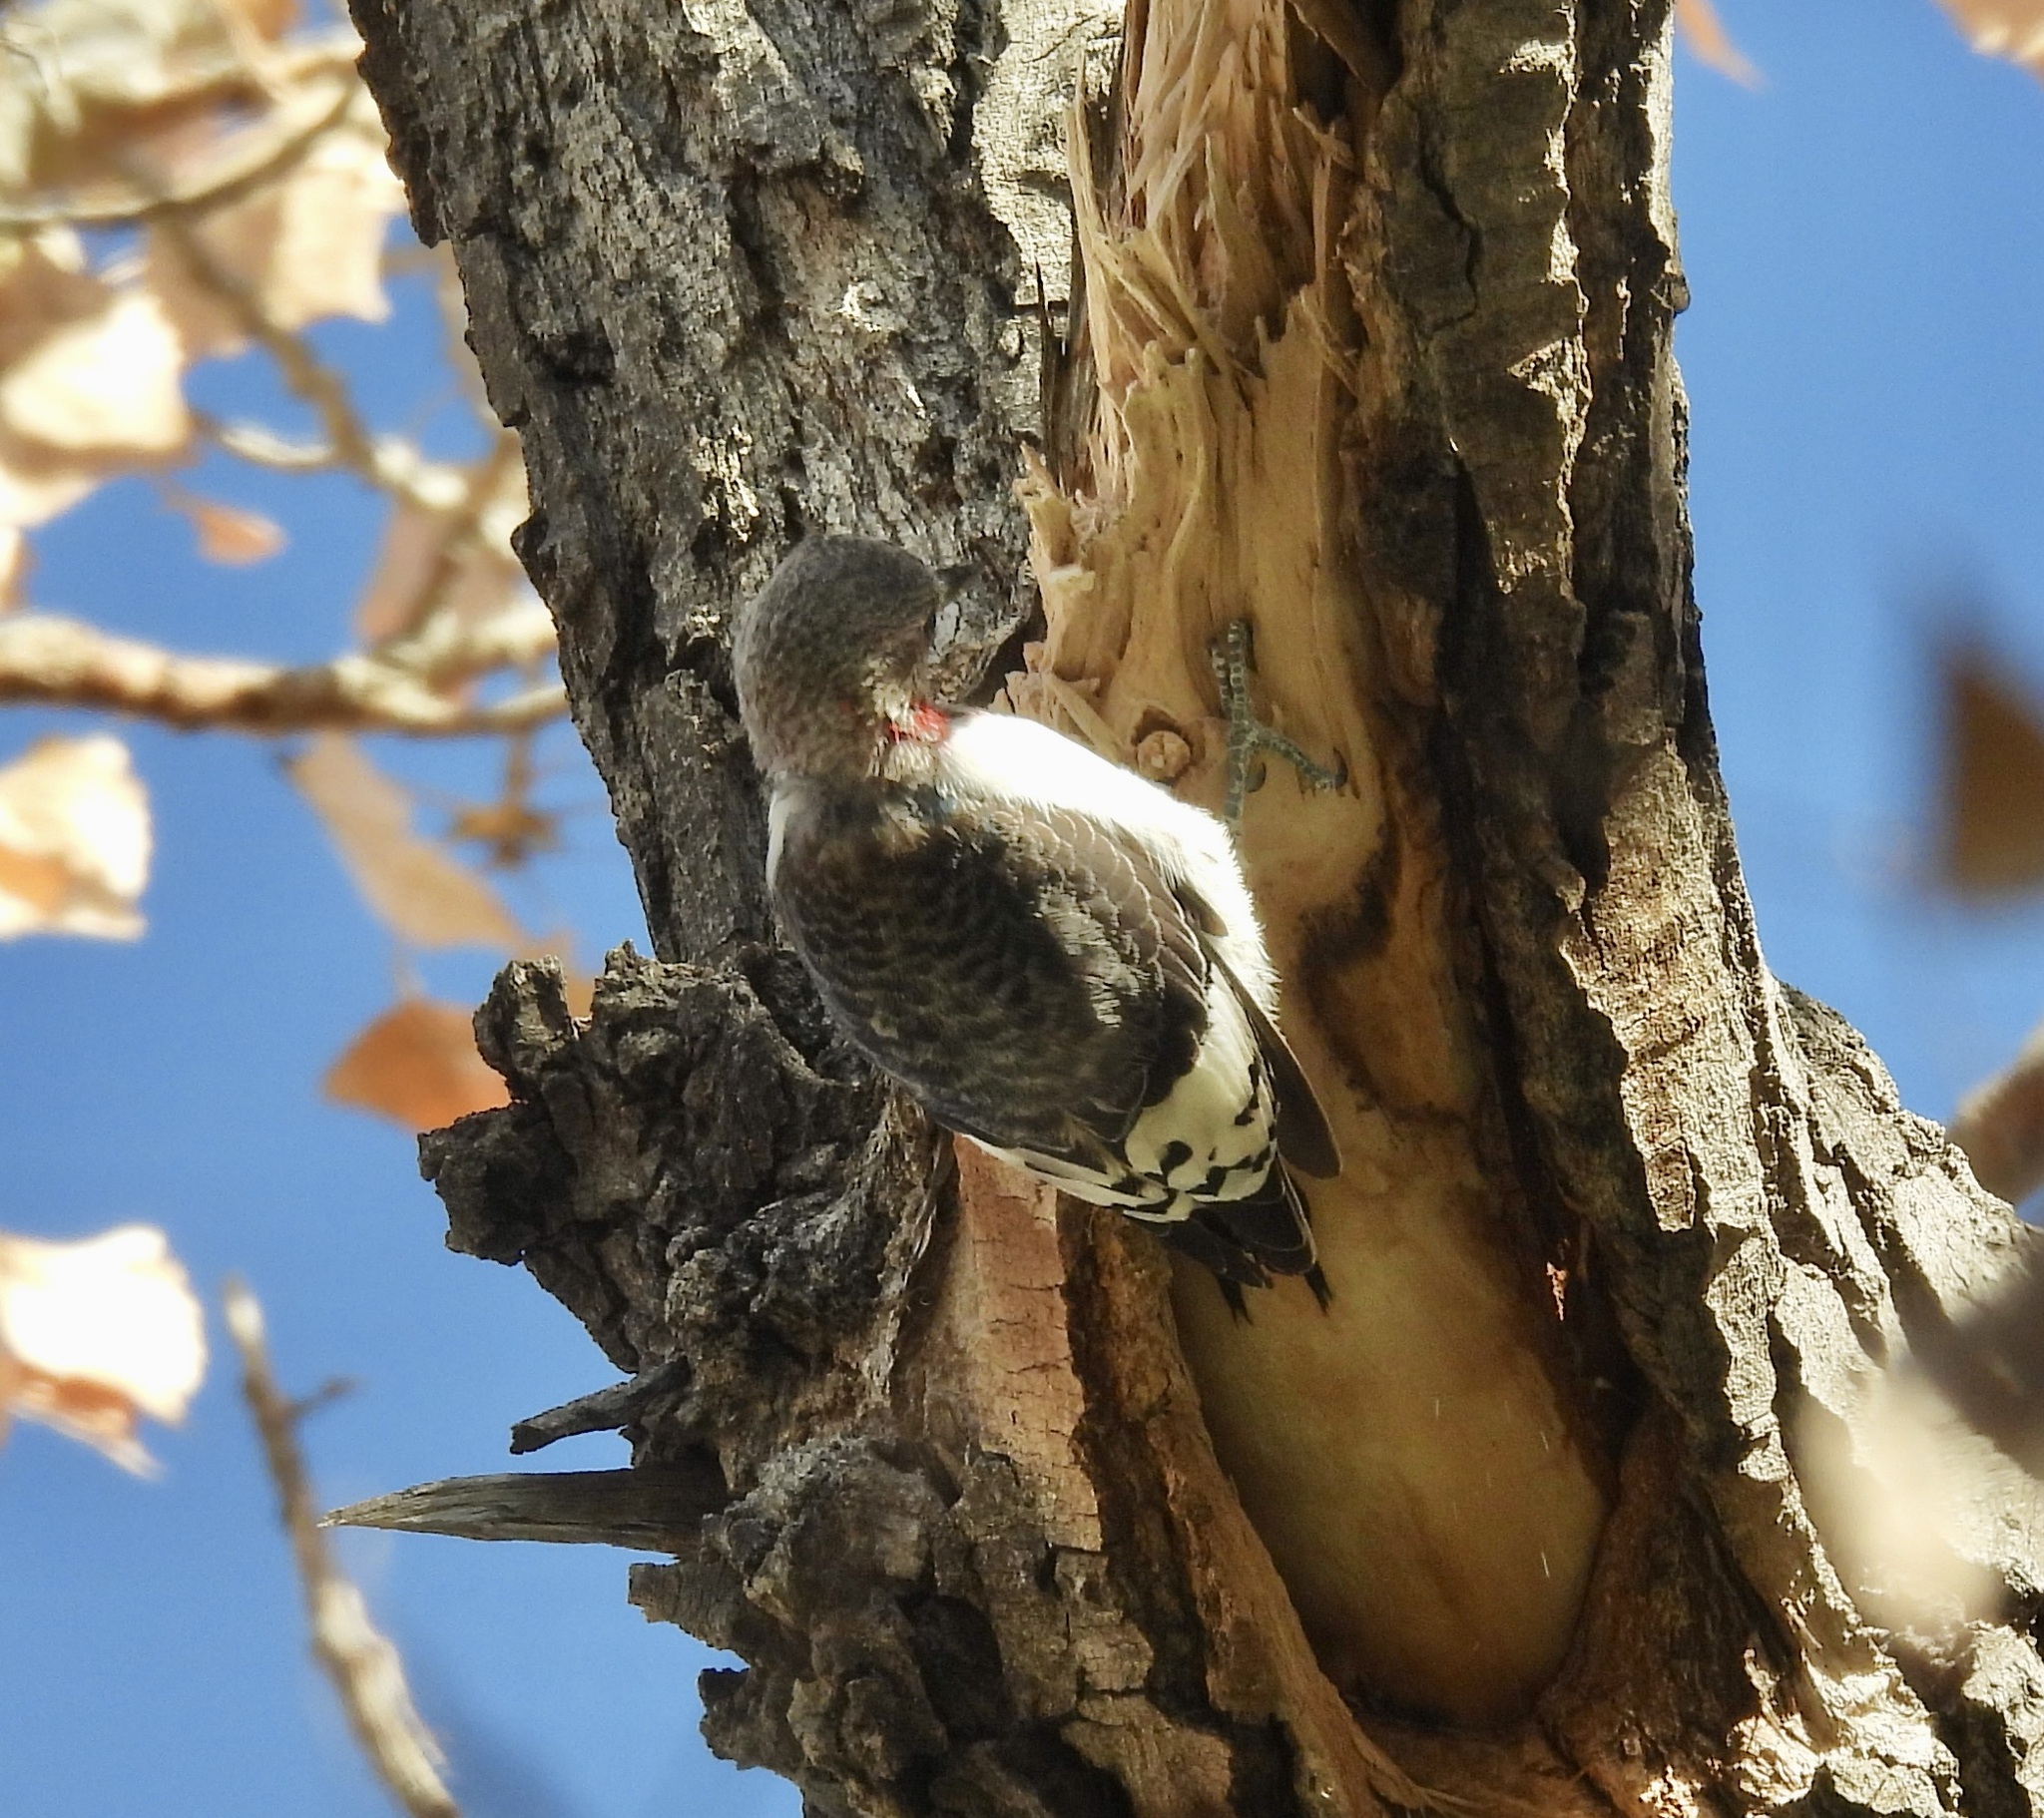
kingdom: Animalia
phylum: Chordata
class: Aves
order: Piciformes
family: Picidae
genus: Melanerpes
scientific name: Melanerpes erythrocephalus
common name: Red-headed woodpecker
